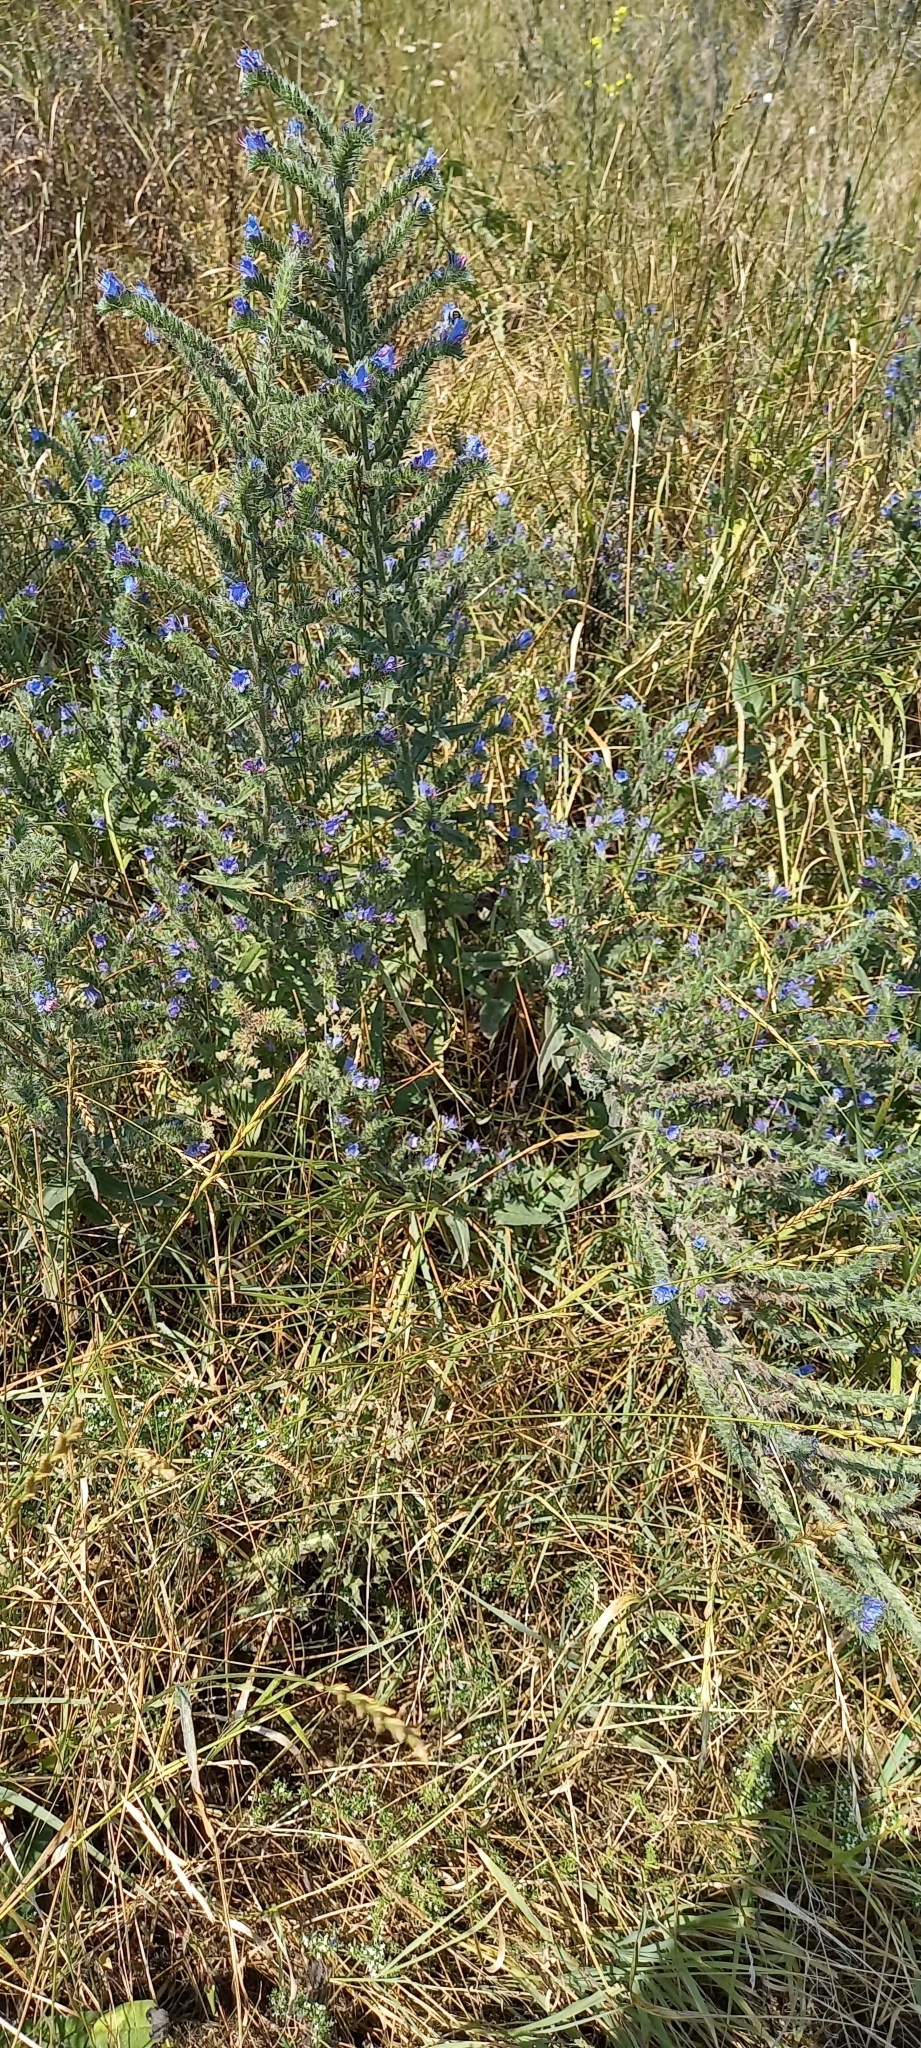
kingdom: Plantae
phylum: Tracheophyta
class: Magnoliopsida
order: Boraginales
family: Boraginaceae
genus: Echium
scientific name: Echium vulgare
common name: Common viper's bugloss
